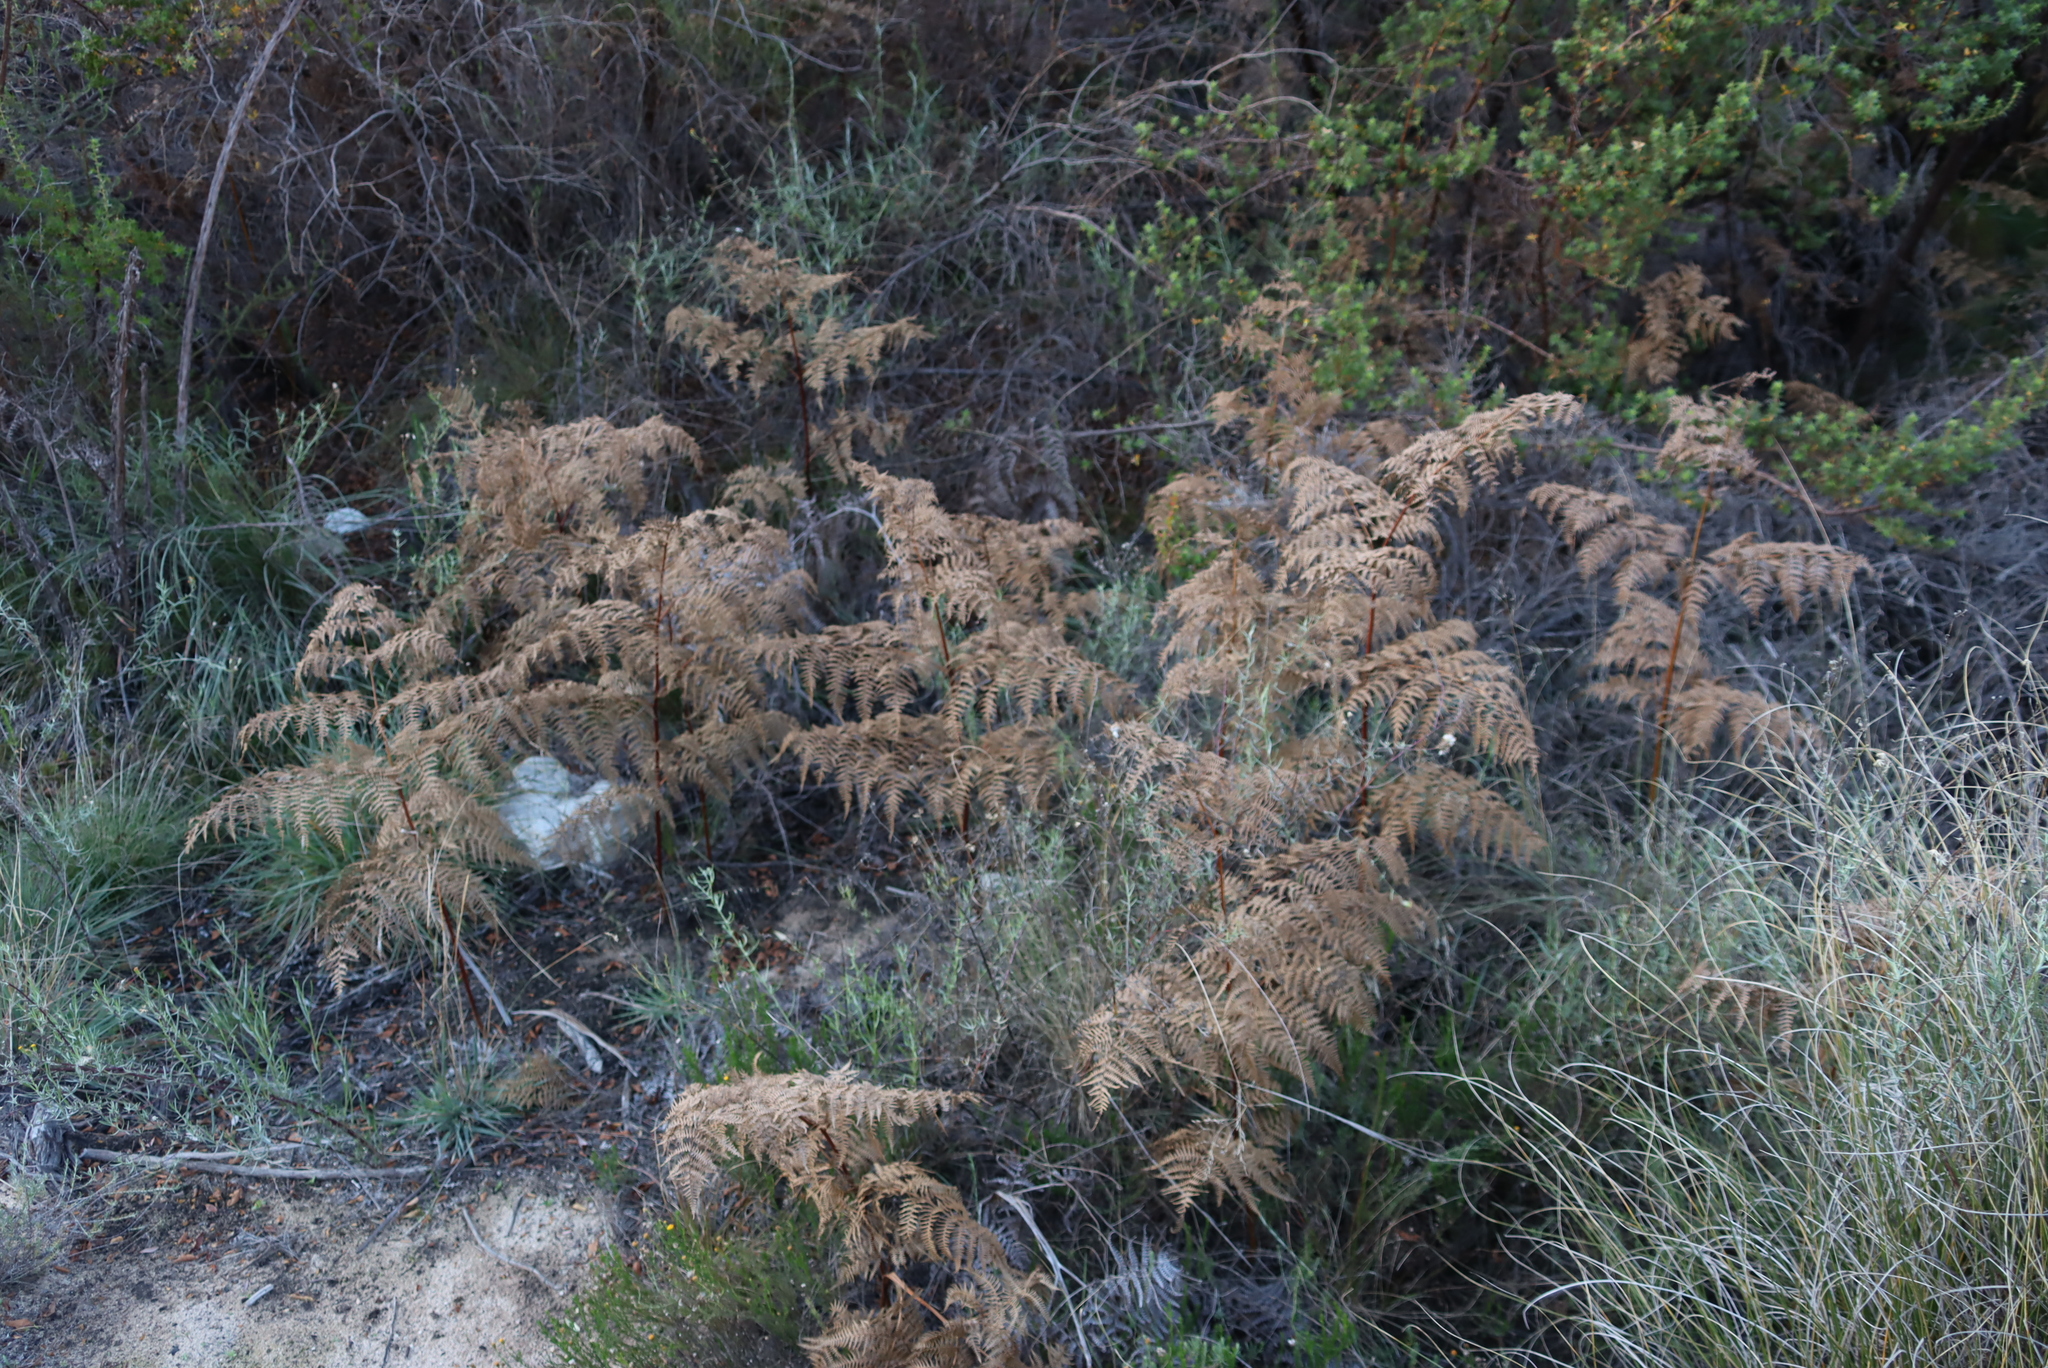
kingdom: Plantae
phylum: Tracheophyta
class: Polypodiopsida
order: Polypodiales
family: Dennstaedtiaceae
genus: Pteridium
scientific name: Pteridium aquilinum
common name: Bracken
